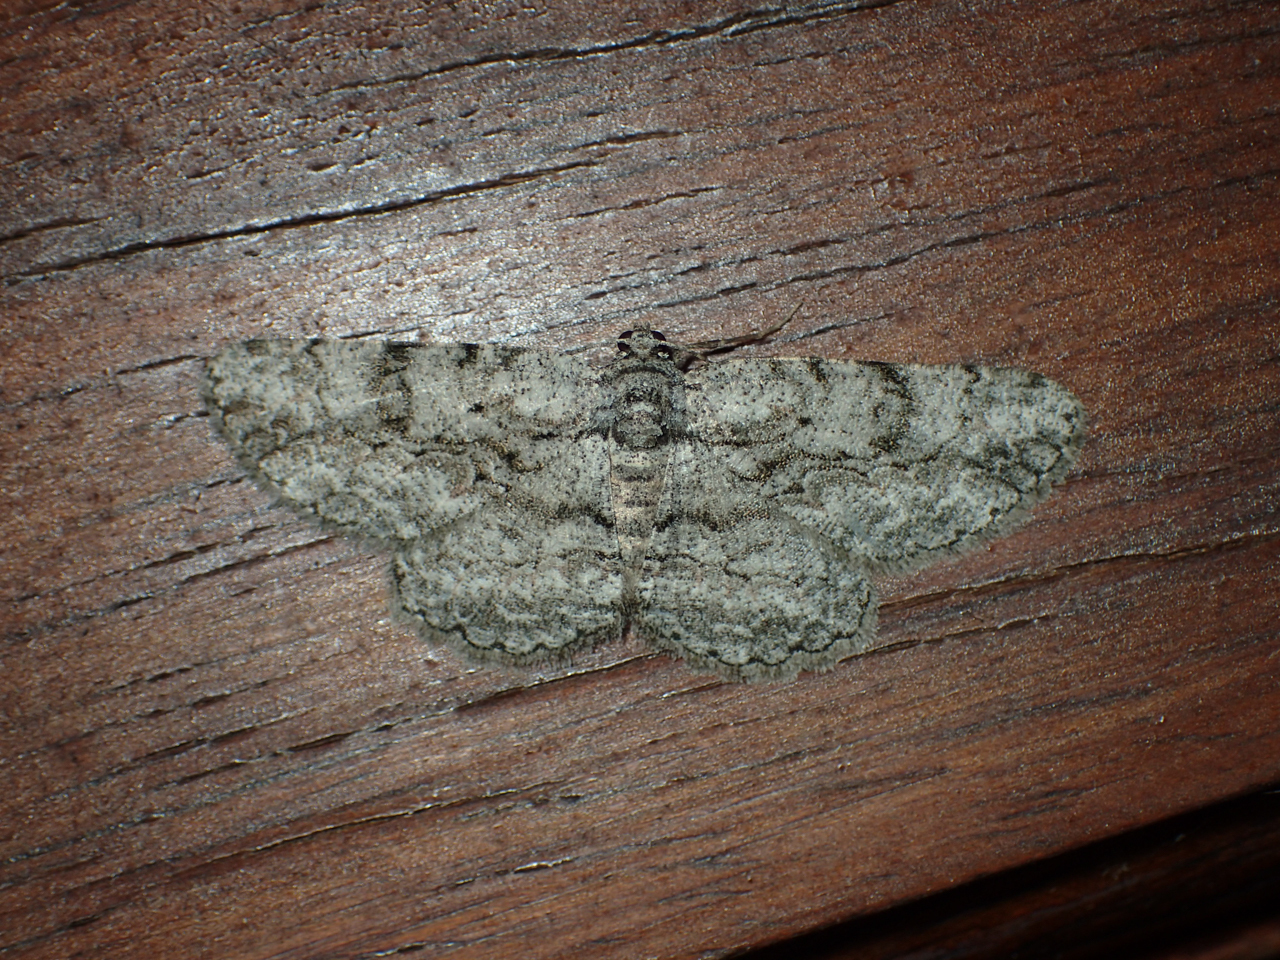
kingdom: Animalia
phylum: Arthropoda
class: Insecta
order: Lepidoptera
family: Geometridae
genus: Anavitrinella
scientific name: Anavitrinella pampinaria
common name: Common gray
